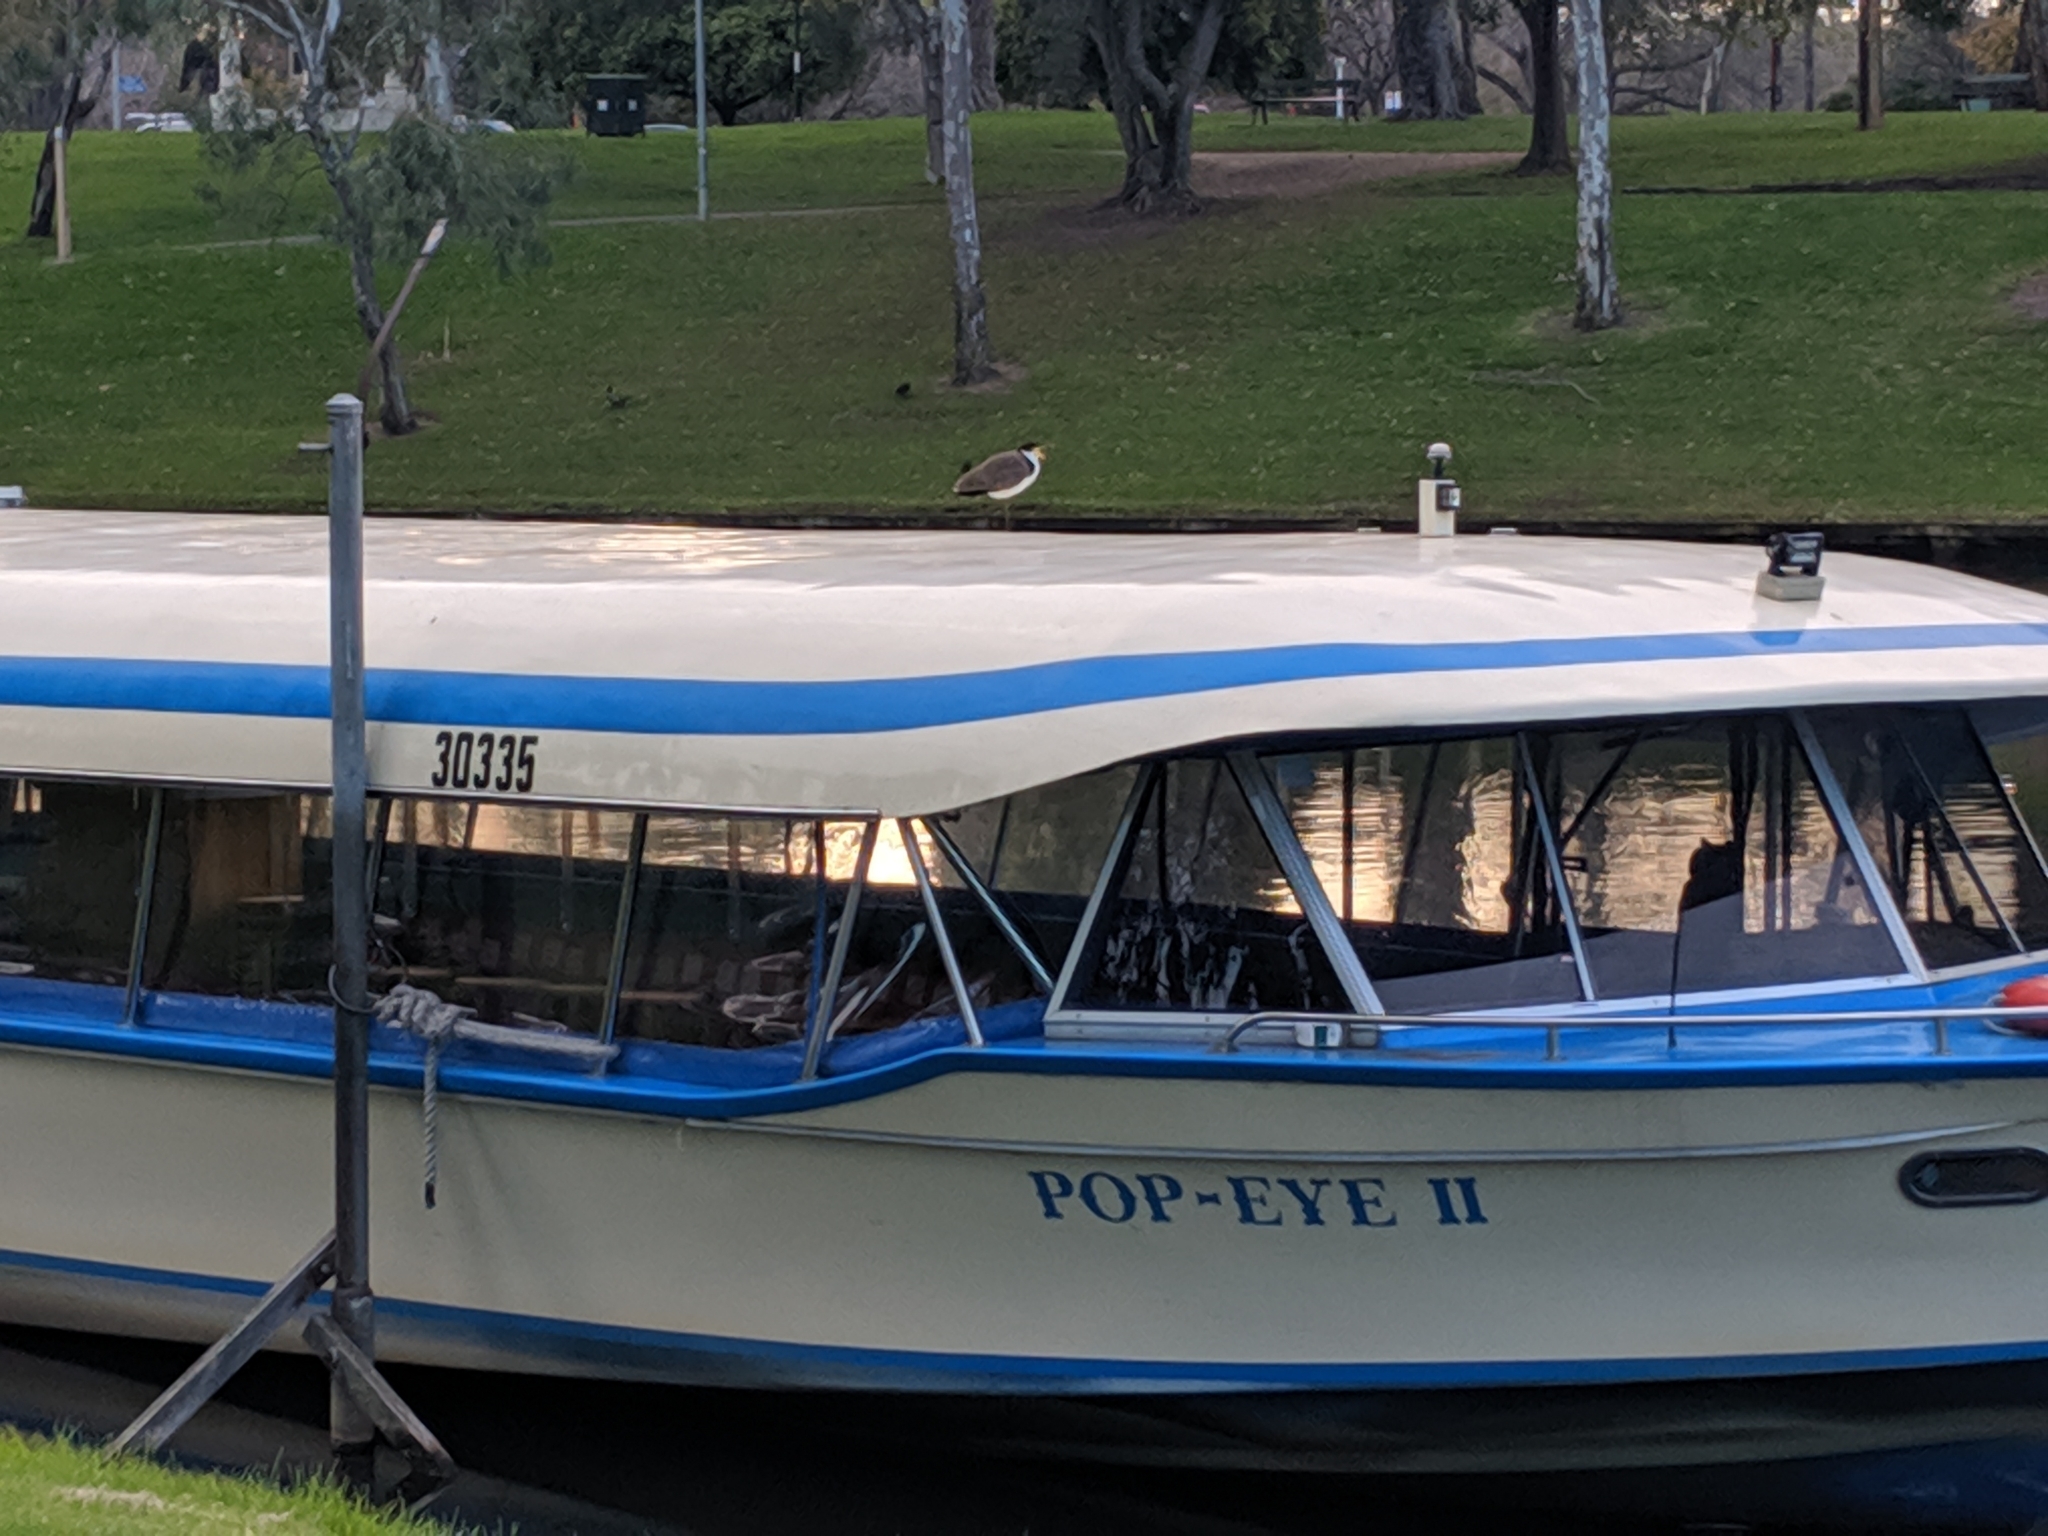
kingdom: Animalia
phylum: Chordata
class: Aves
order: Charadriiformes
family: Charadriidae
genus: Vanellus
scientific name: Vanellus miles
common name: Masked lapwing
